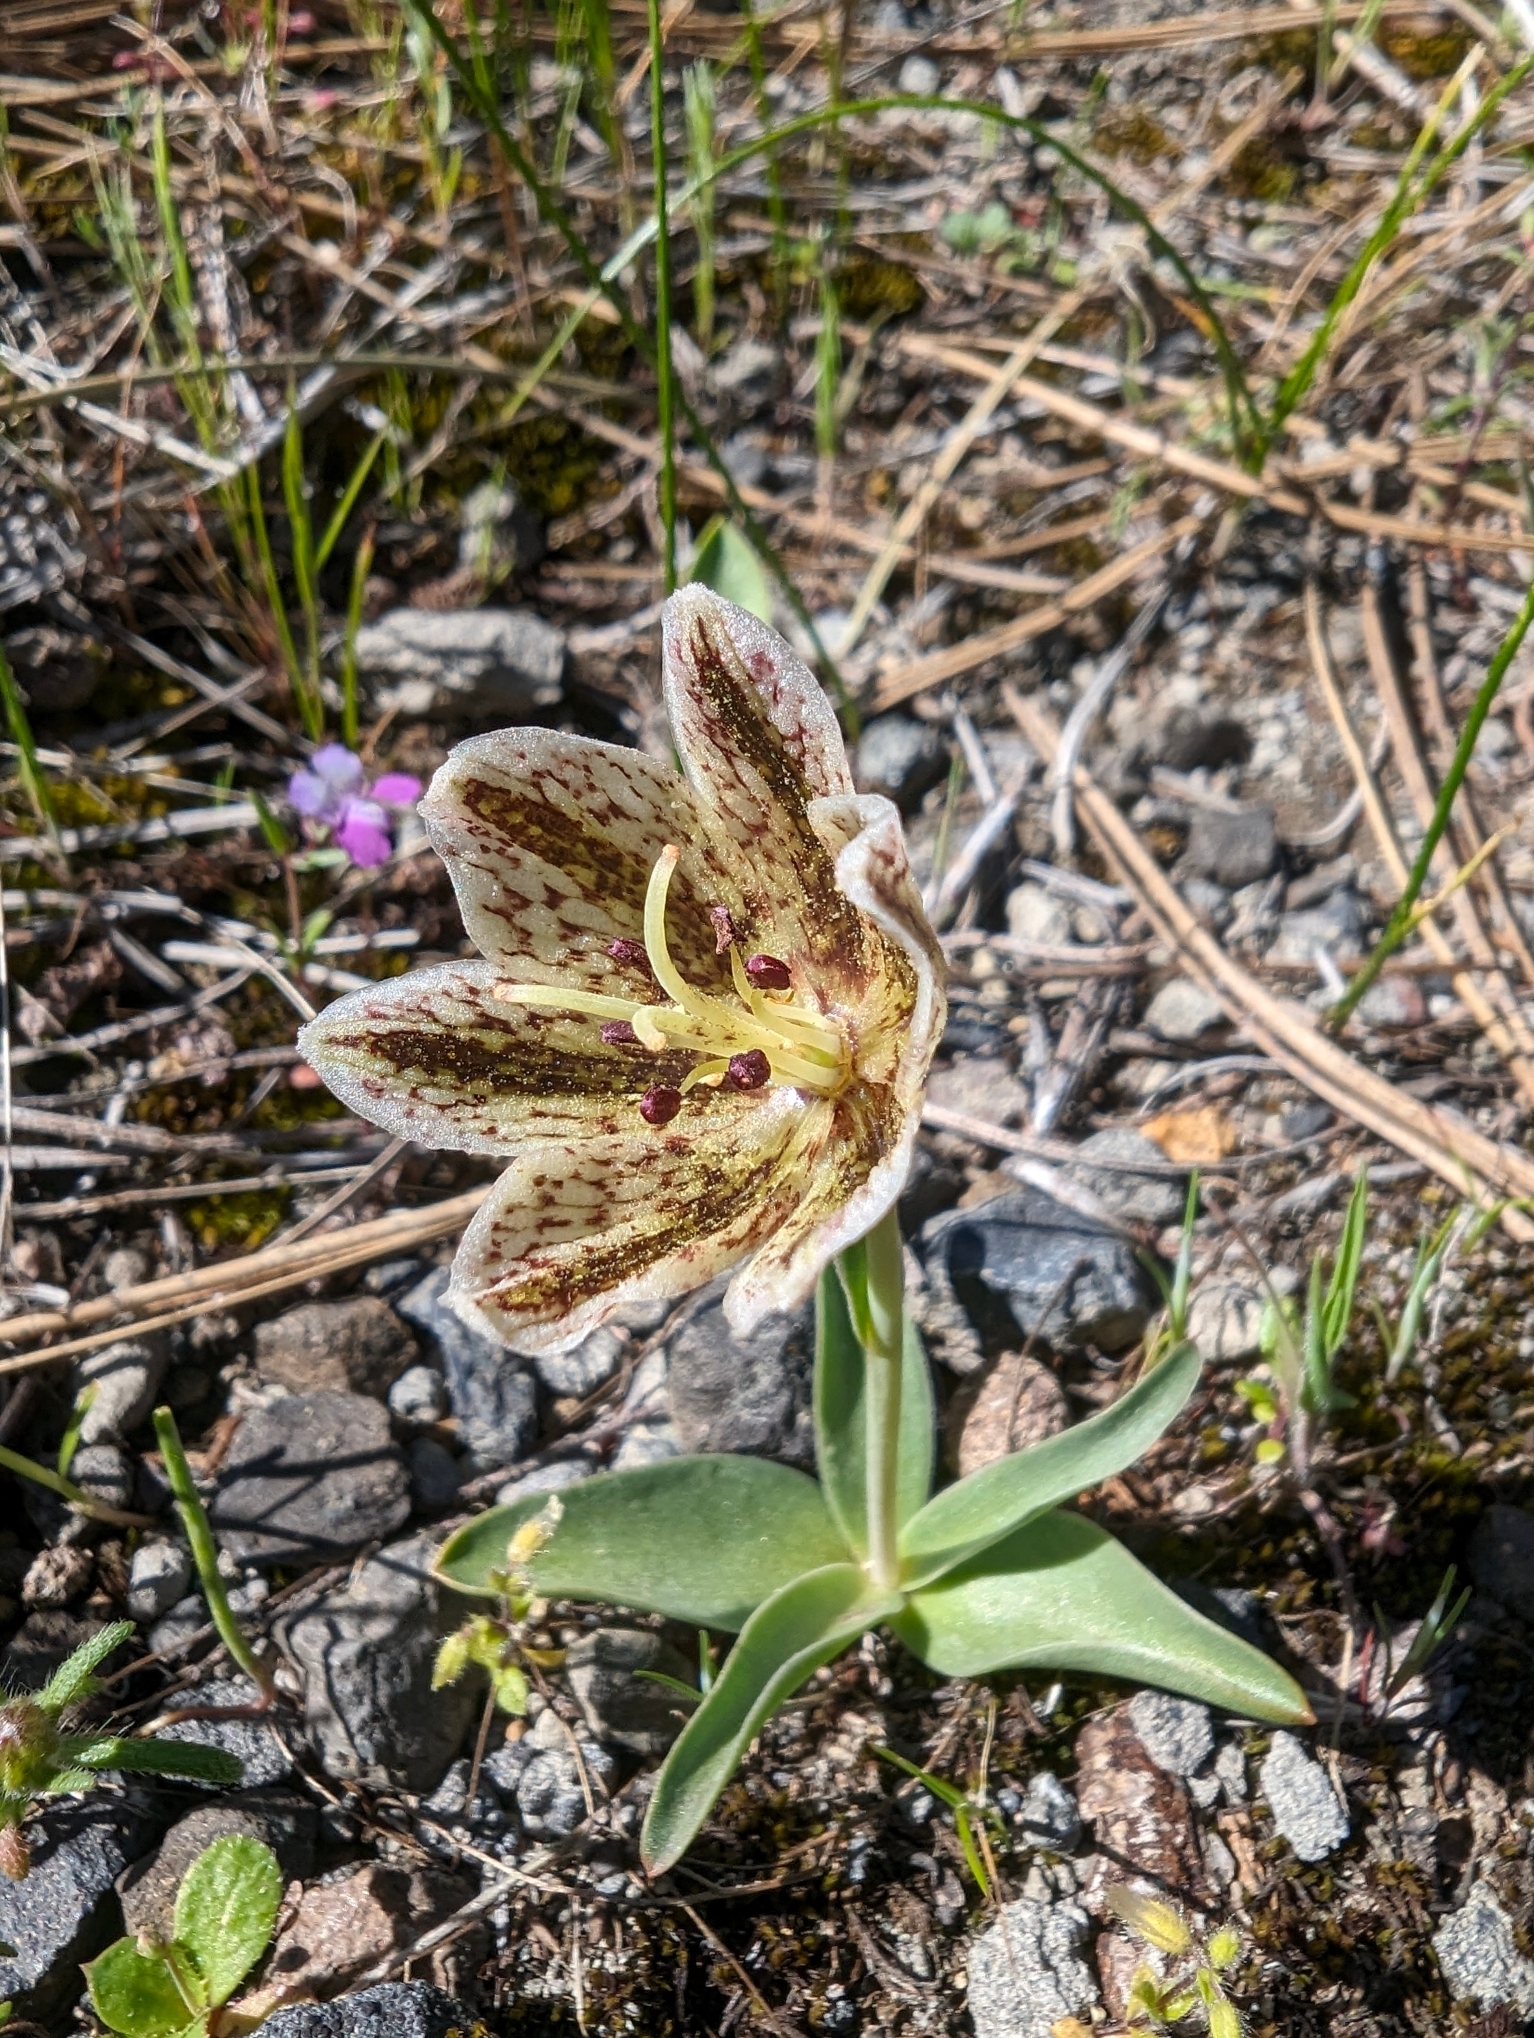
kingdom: Plantae
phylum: Tracheophyta
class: Liliopsida
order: Liliales
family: Liliaceae
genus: Fritillaria
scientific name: Fritillaria purdyi
